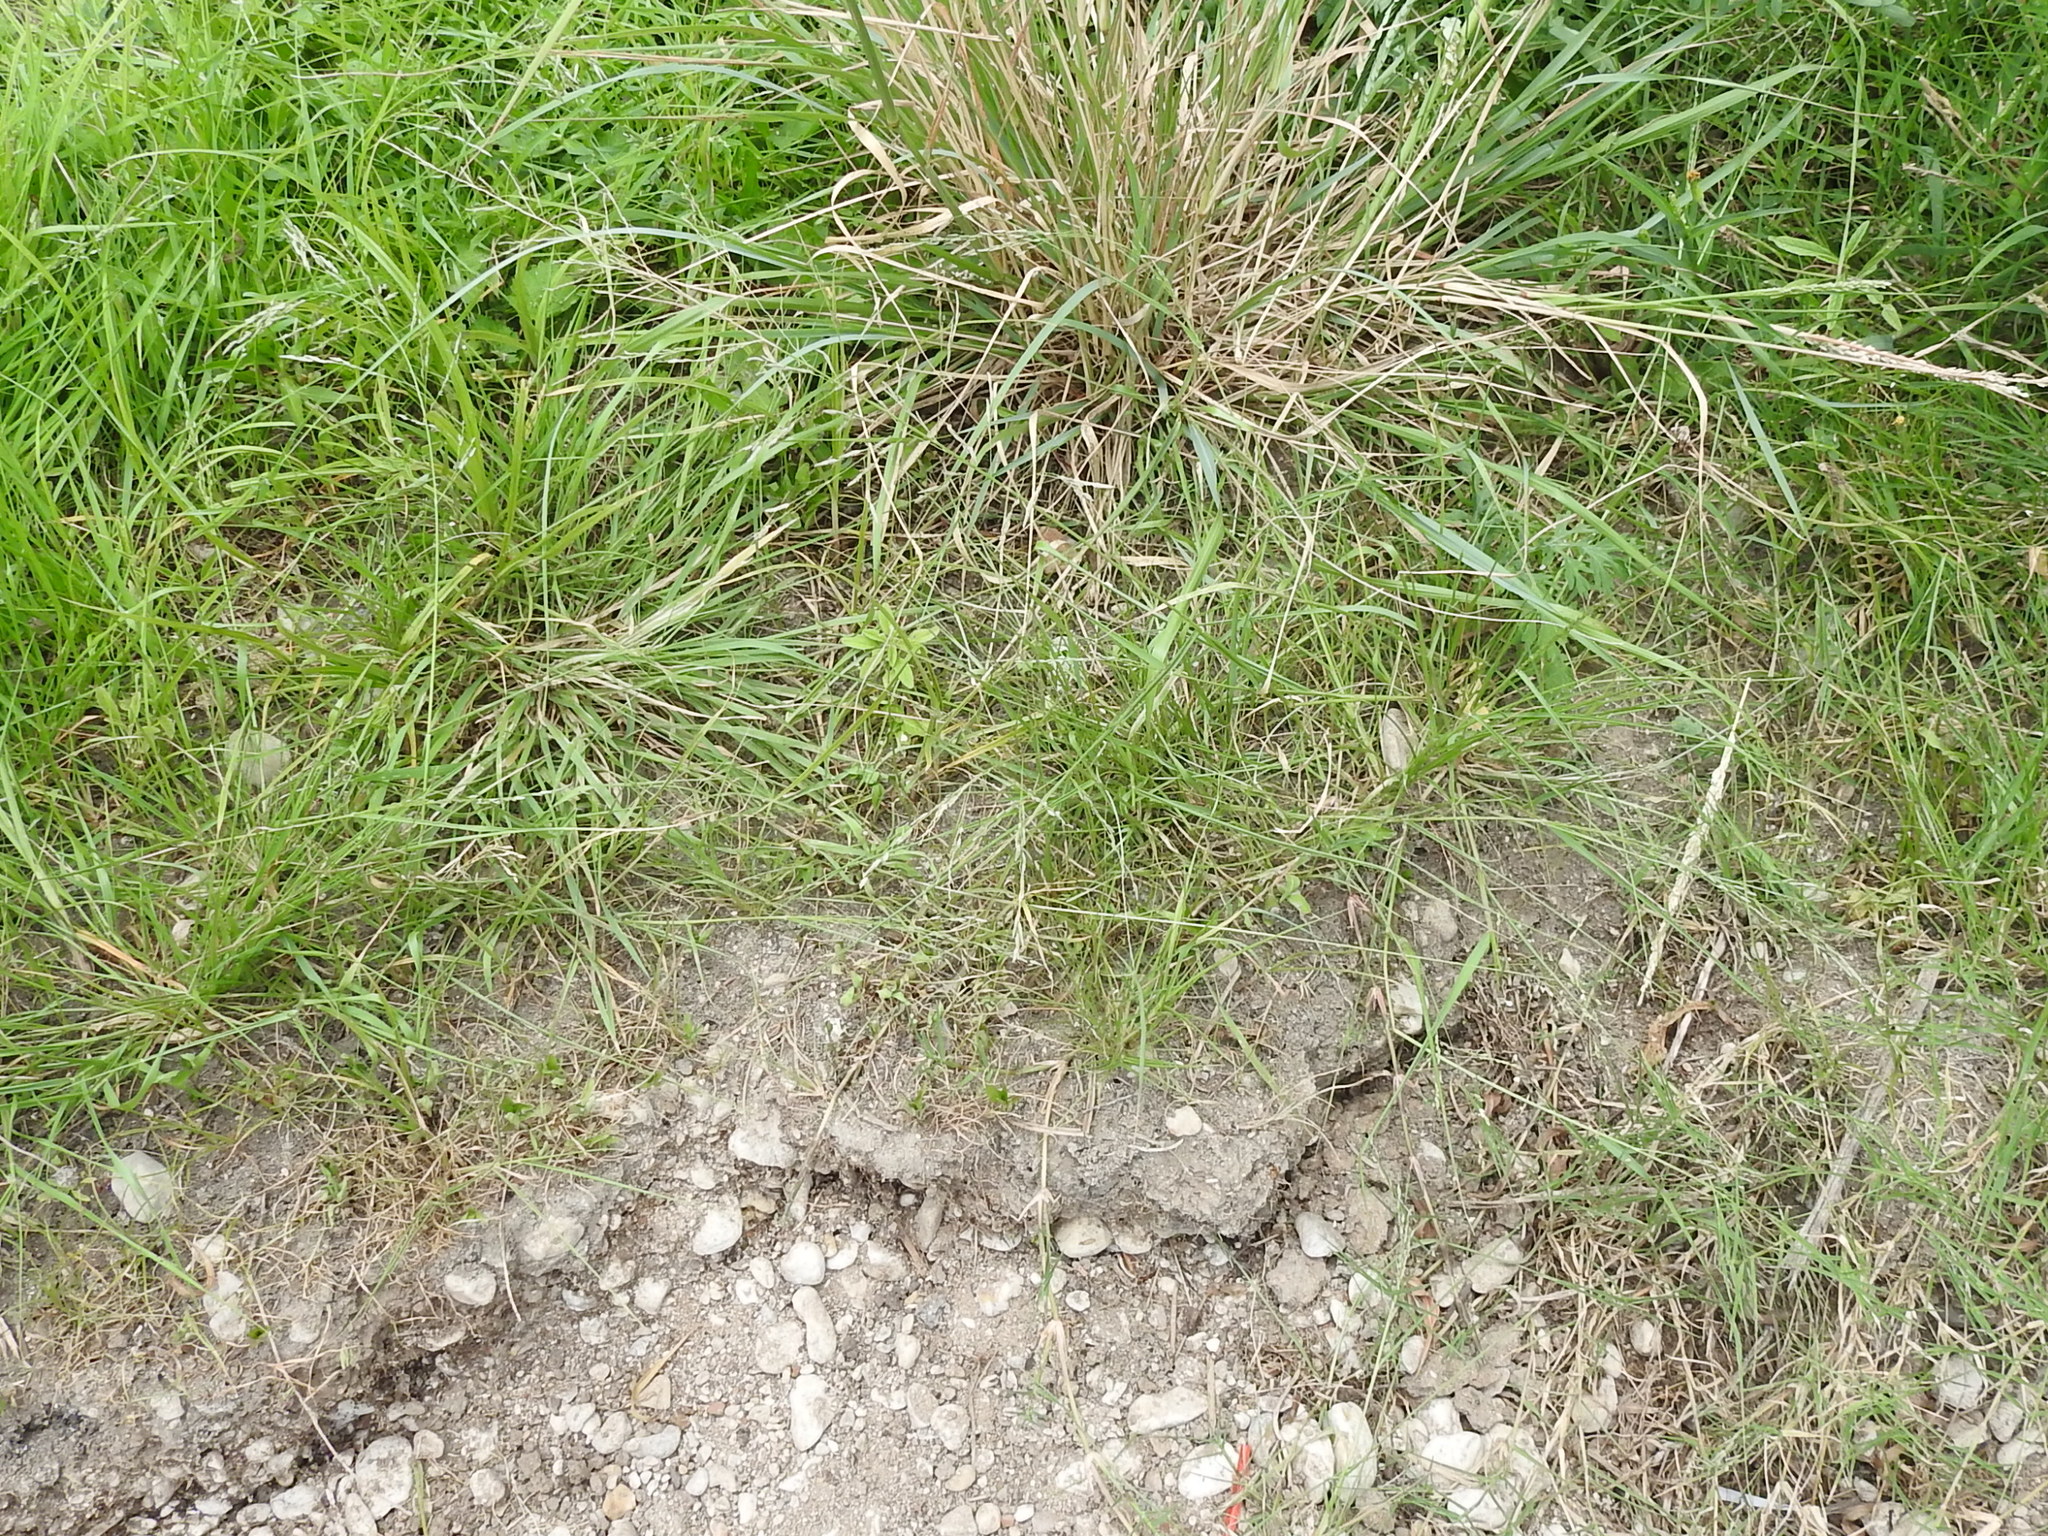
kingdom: Plantae
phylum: Tracheophyta
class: Liliopsida
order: Poales
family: Poaceae
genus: Eragrostis
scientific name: Eragrostis curvula
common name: African love-grass
